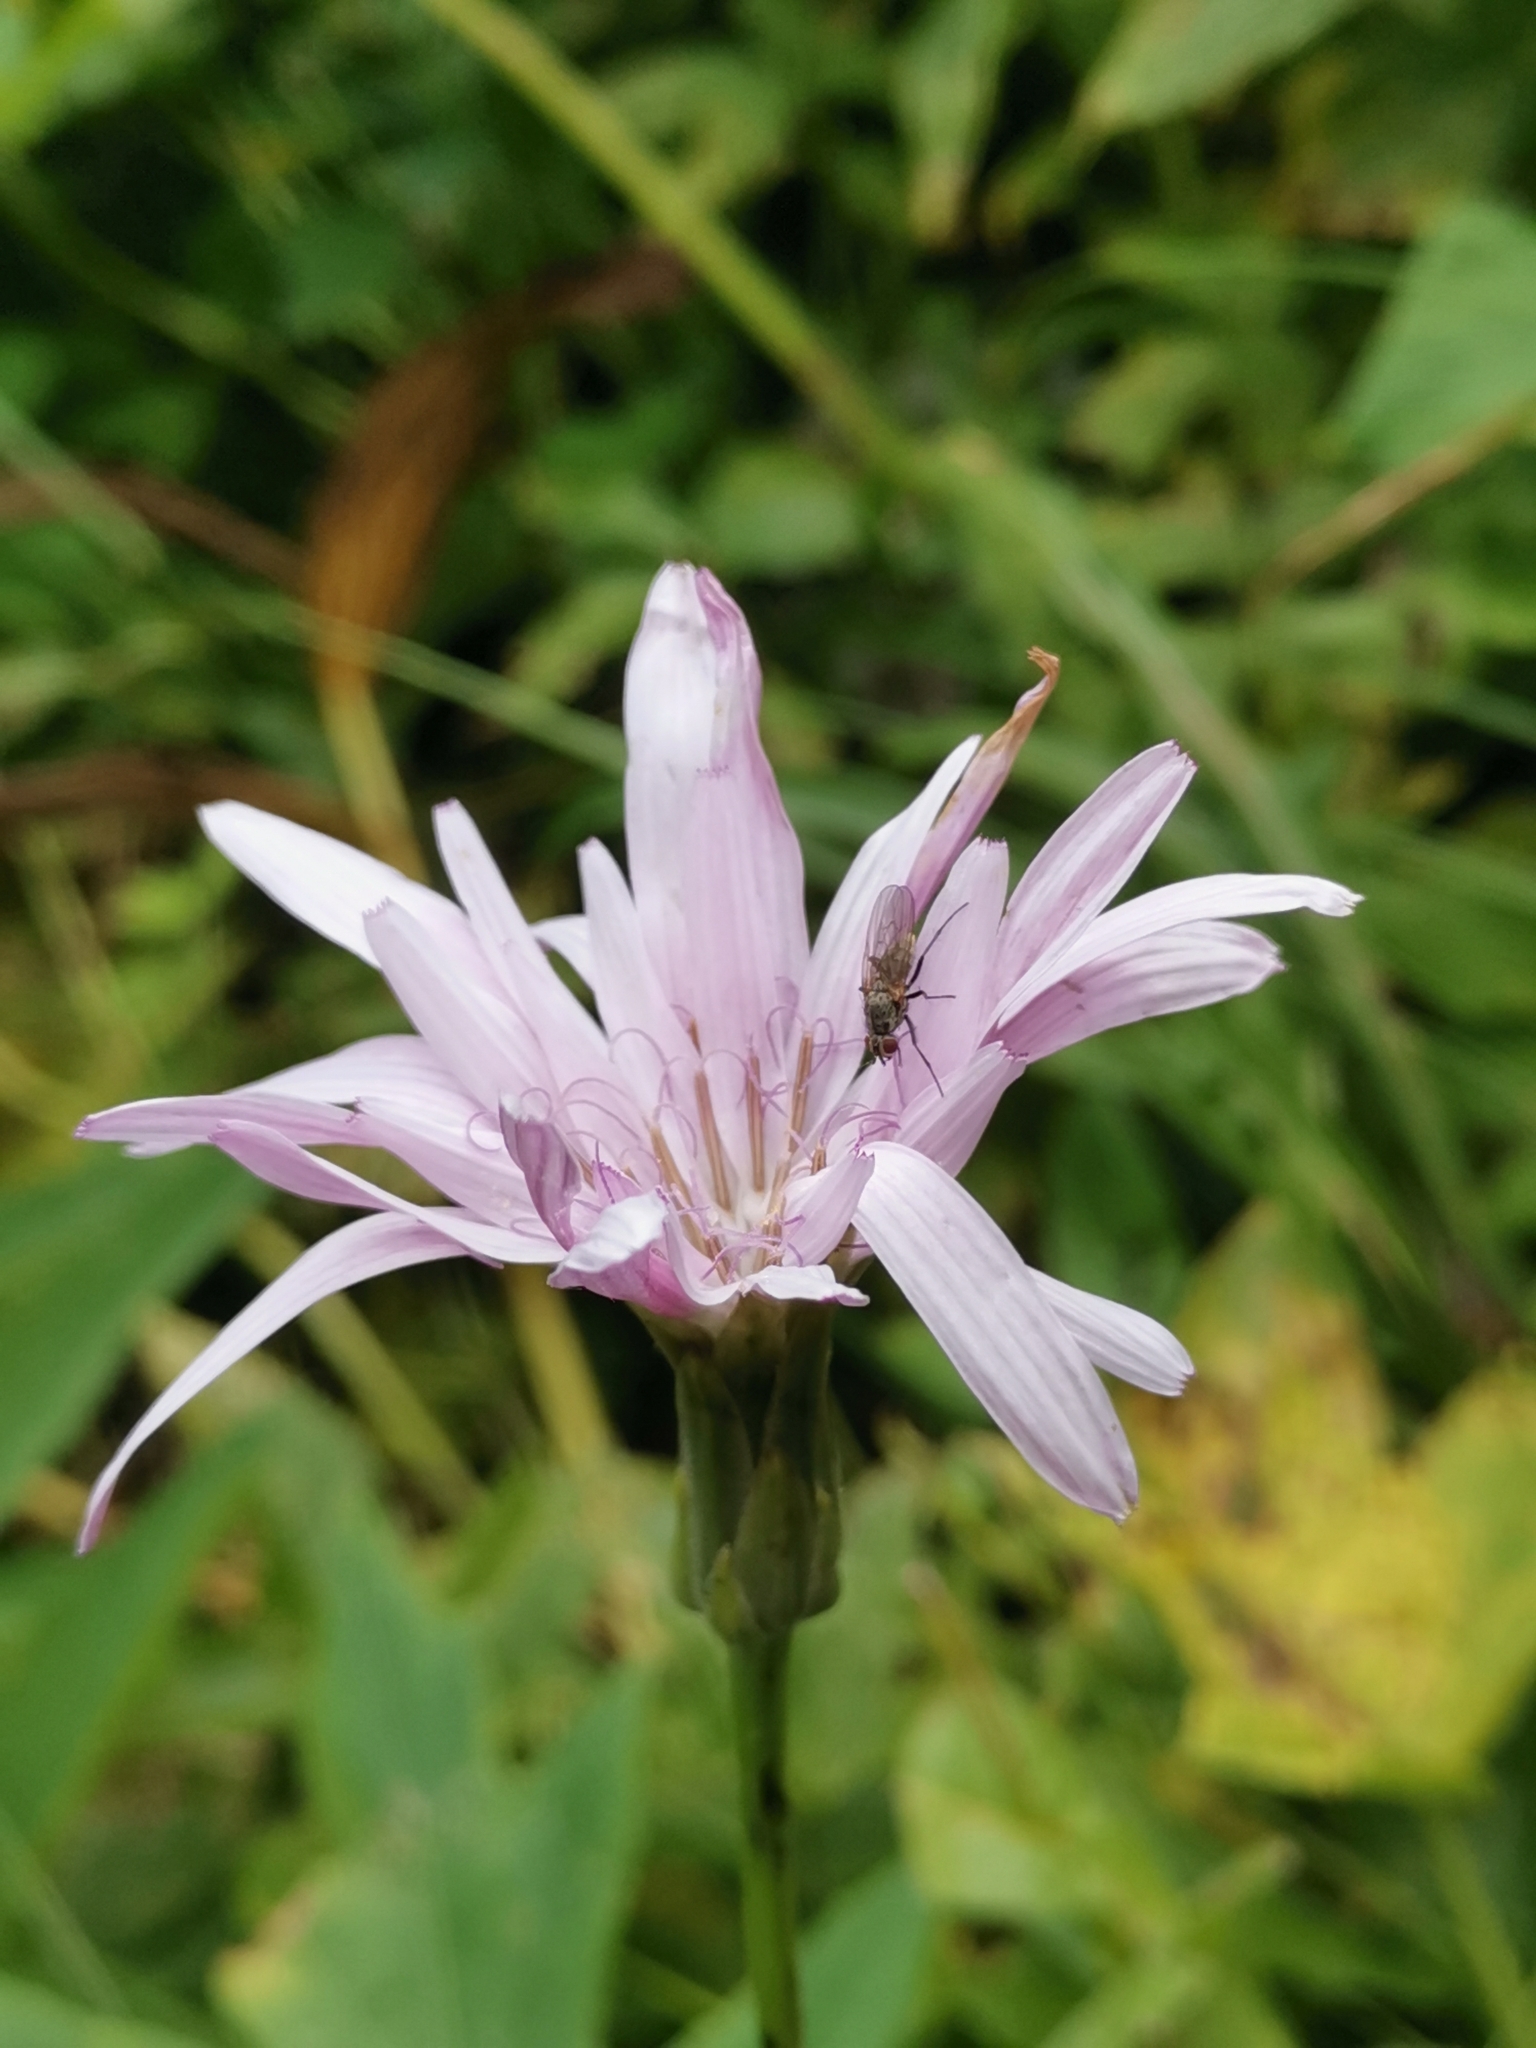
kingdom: Plantae
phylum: Tracheophyta
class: Magnoliopsida
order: Asterales
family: Asteraceae
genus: Scorzonera
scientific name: Scorzonera rosea
